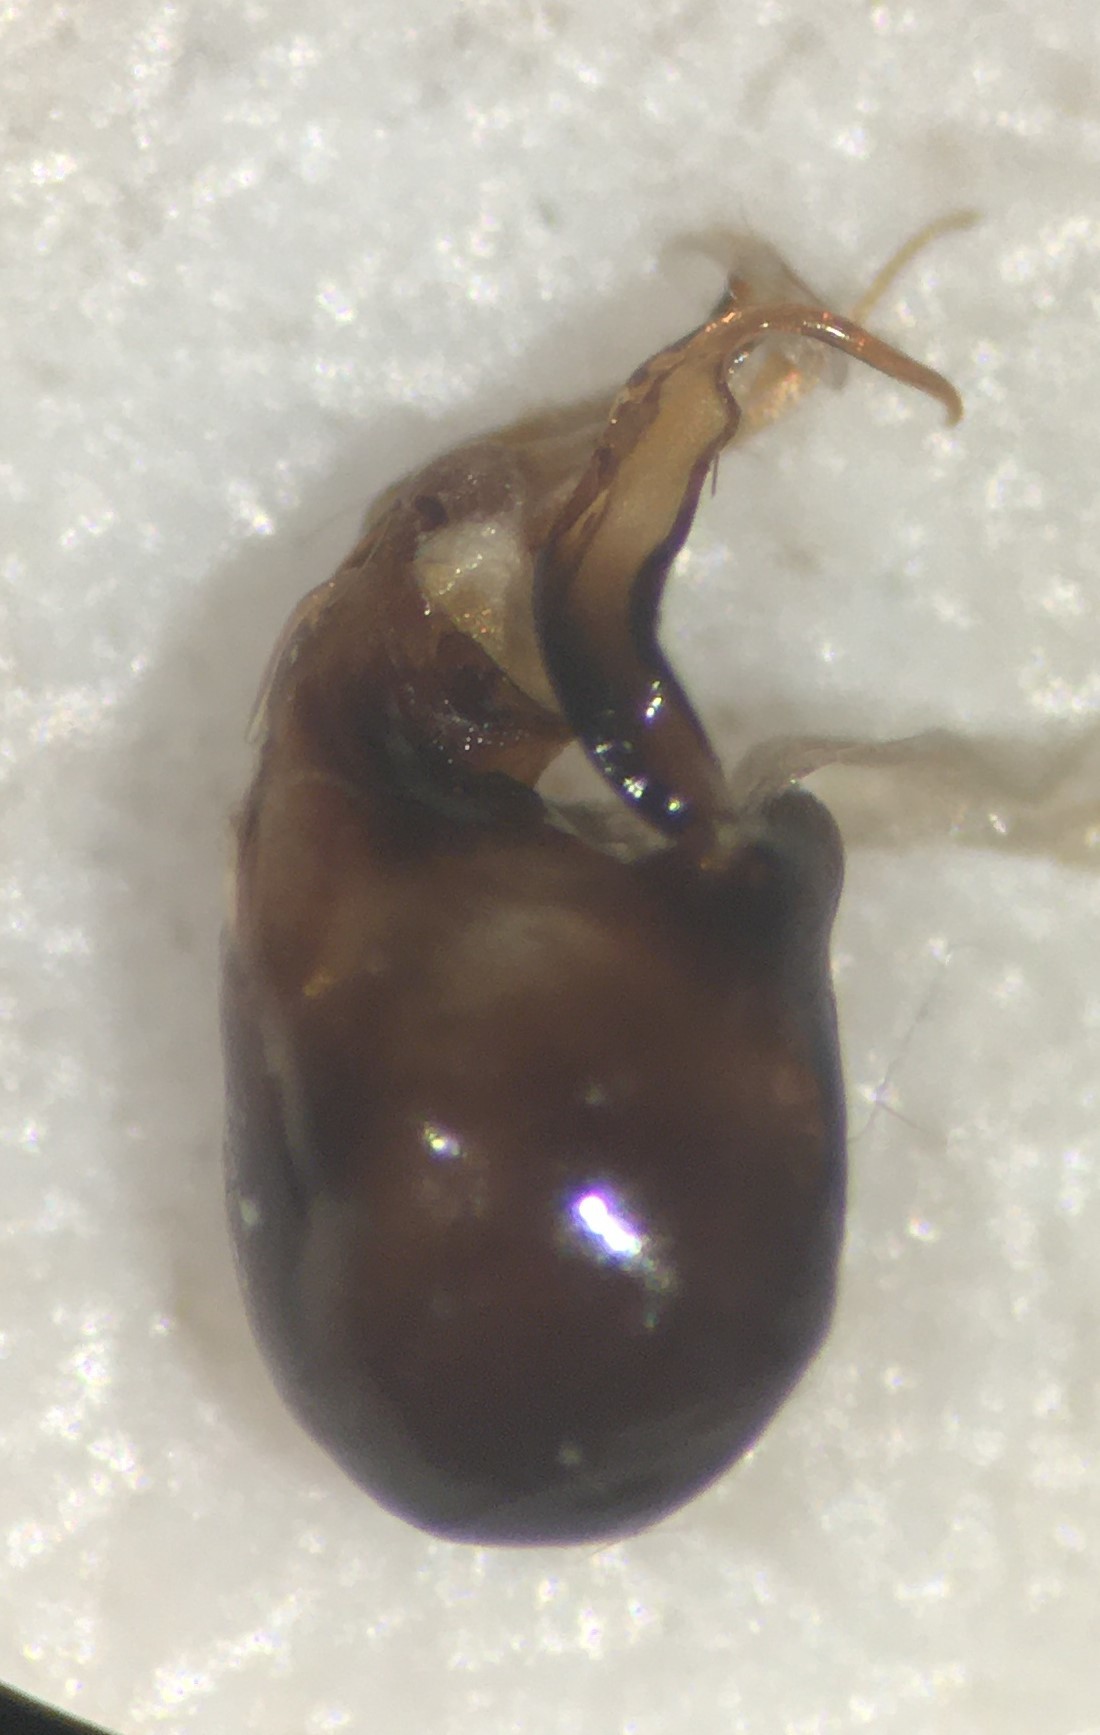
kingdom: Animalia
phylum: Arthropoda
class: Insecta
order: Hemiptera
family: Corixidae
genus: Hesperocorixa
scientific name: Hesperocorixa nitida
